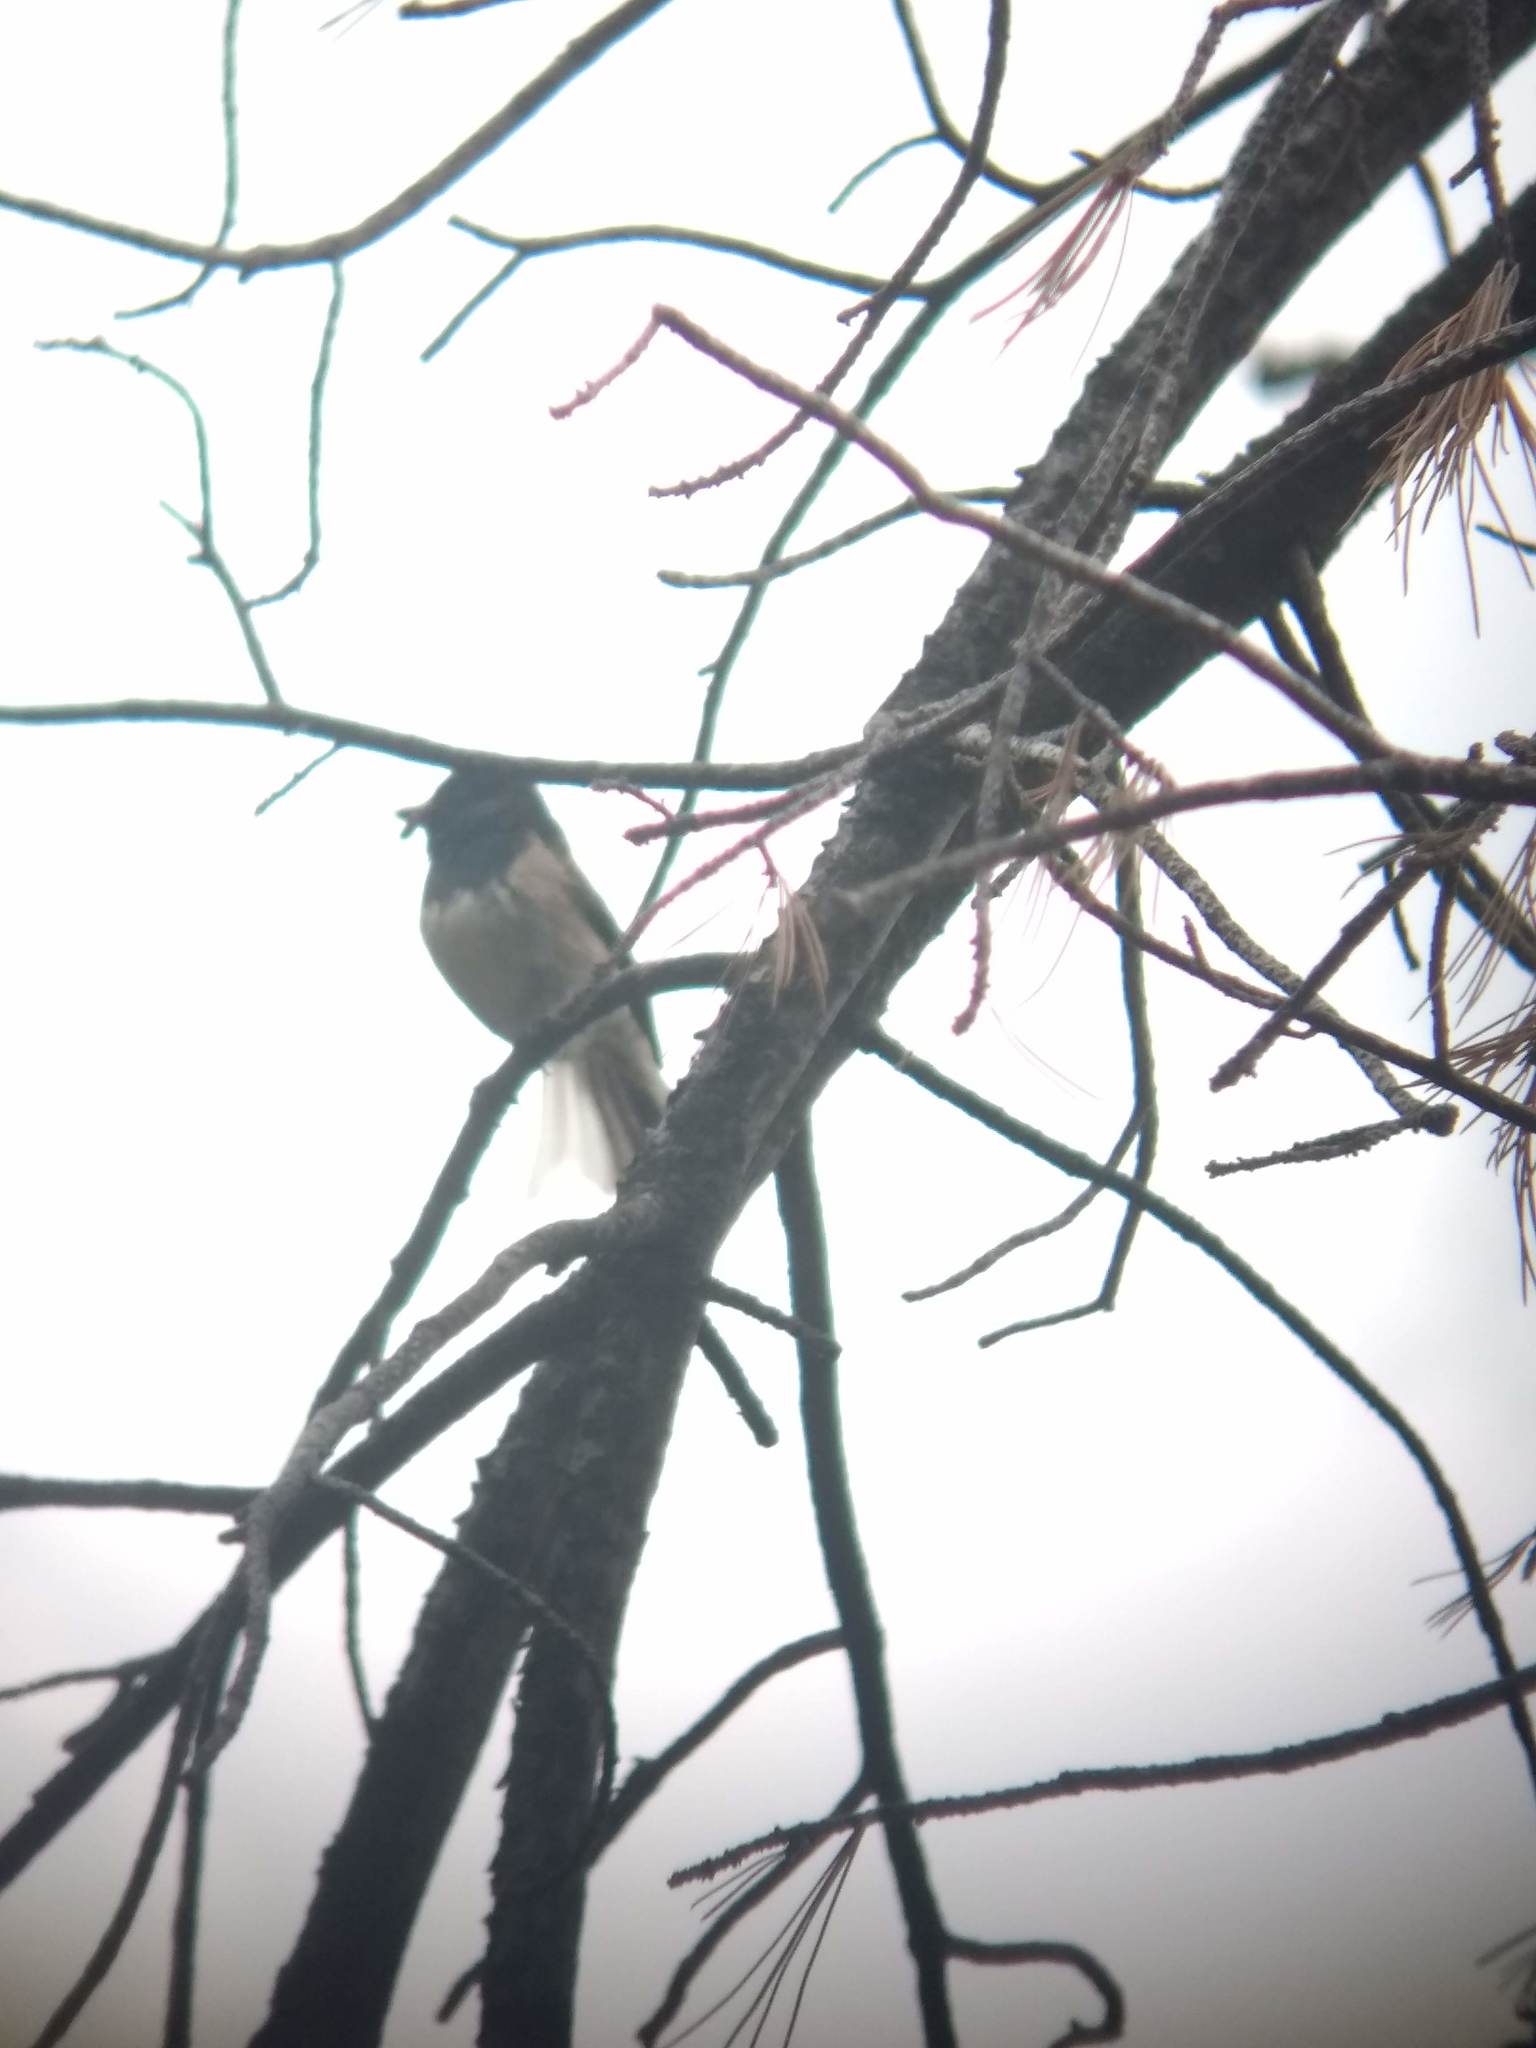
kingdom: Animalia
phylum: Chordata
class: Aves
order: Passeriformes
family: Passerellidae
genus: Junco
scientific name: Junco hyemalis
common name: Dark-eyed junco
